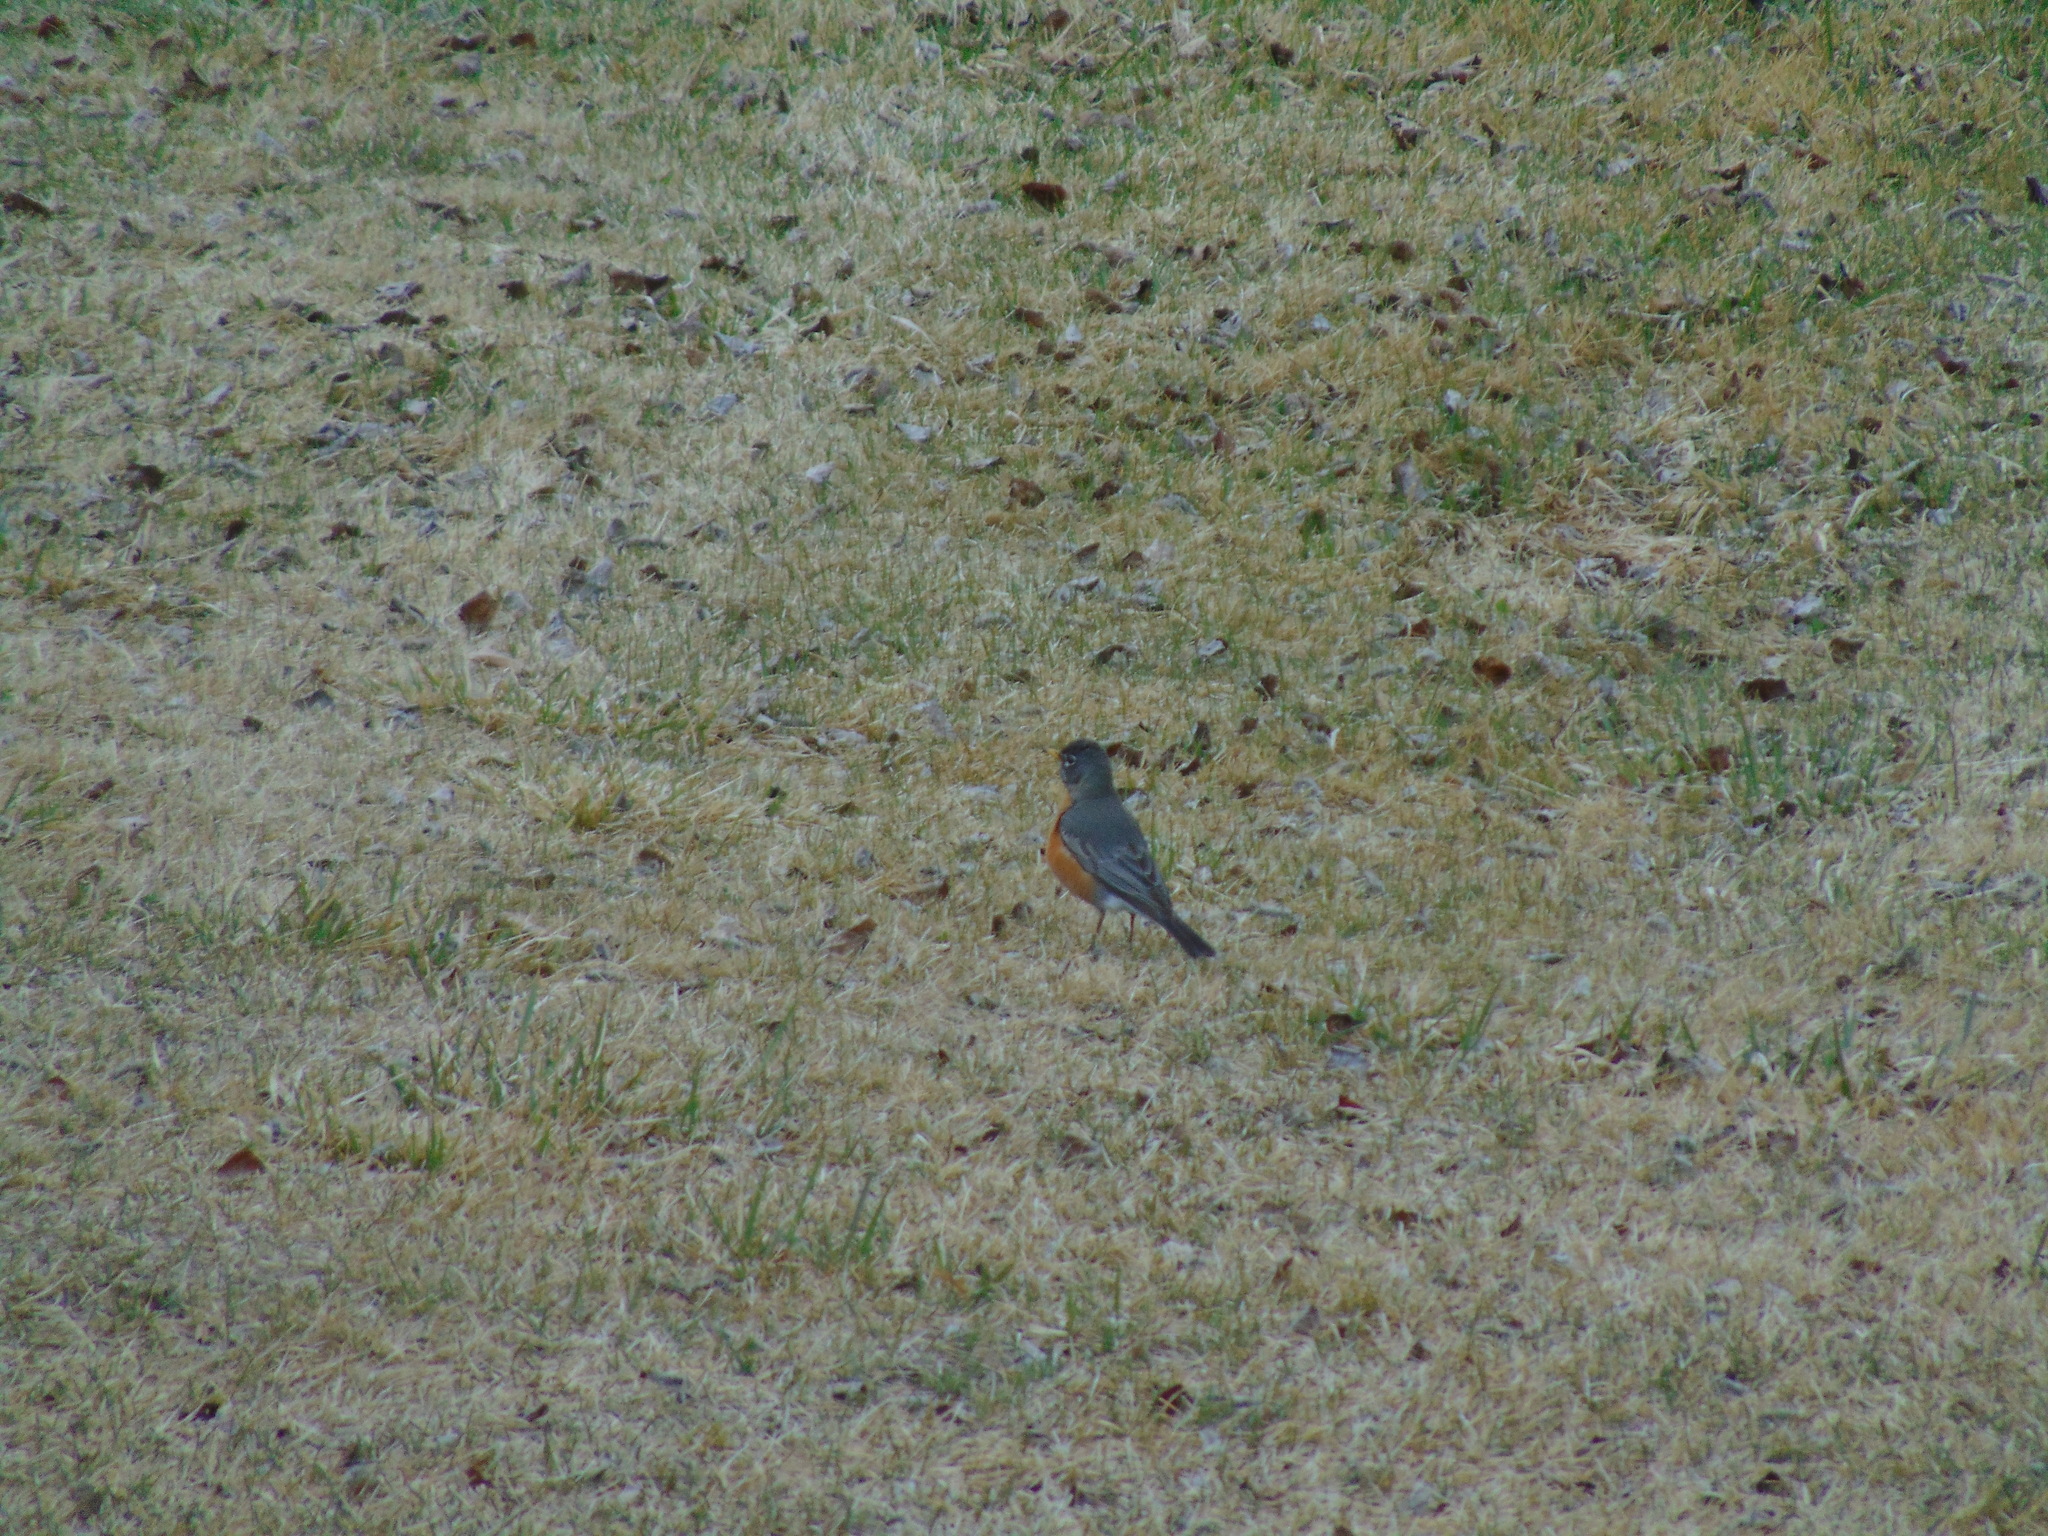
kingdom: Animalia
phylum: Chordata
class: Aves
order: Passeriformes
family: Turdidae
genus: Turdus
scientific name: Turdus migratorius
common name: American robin
